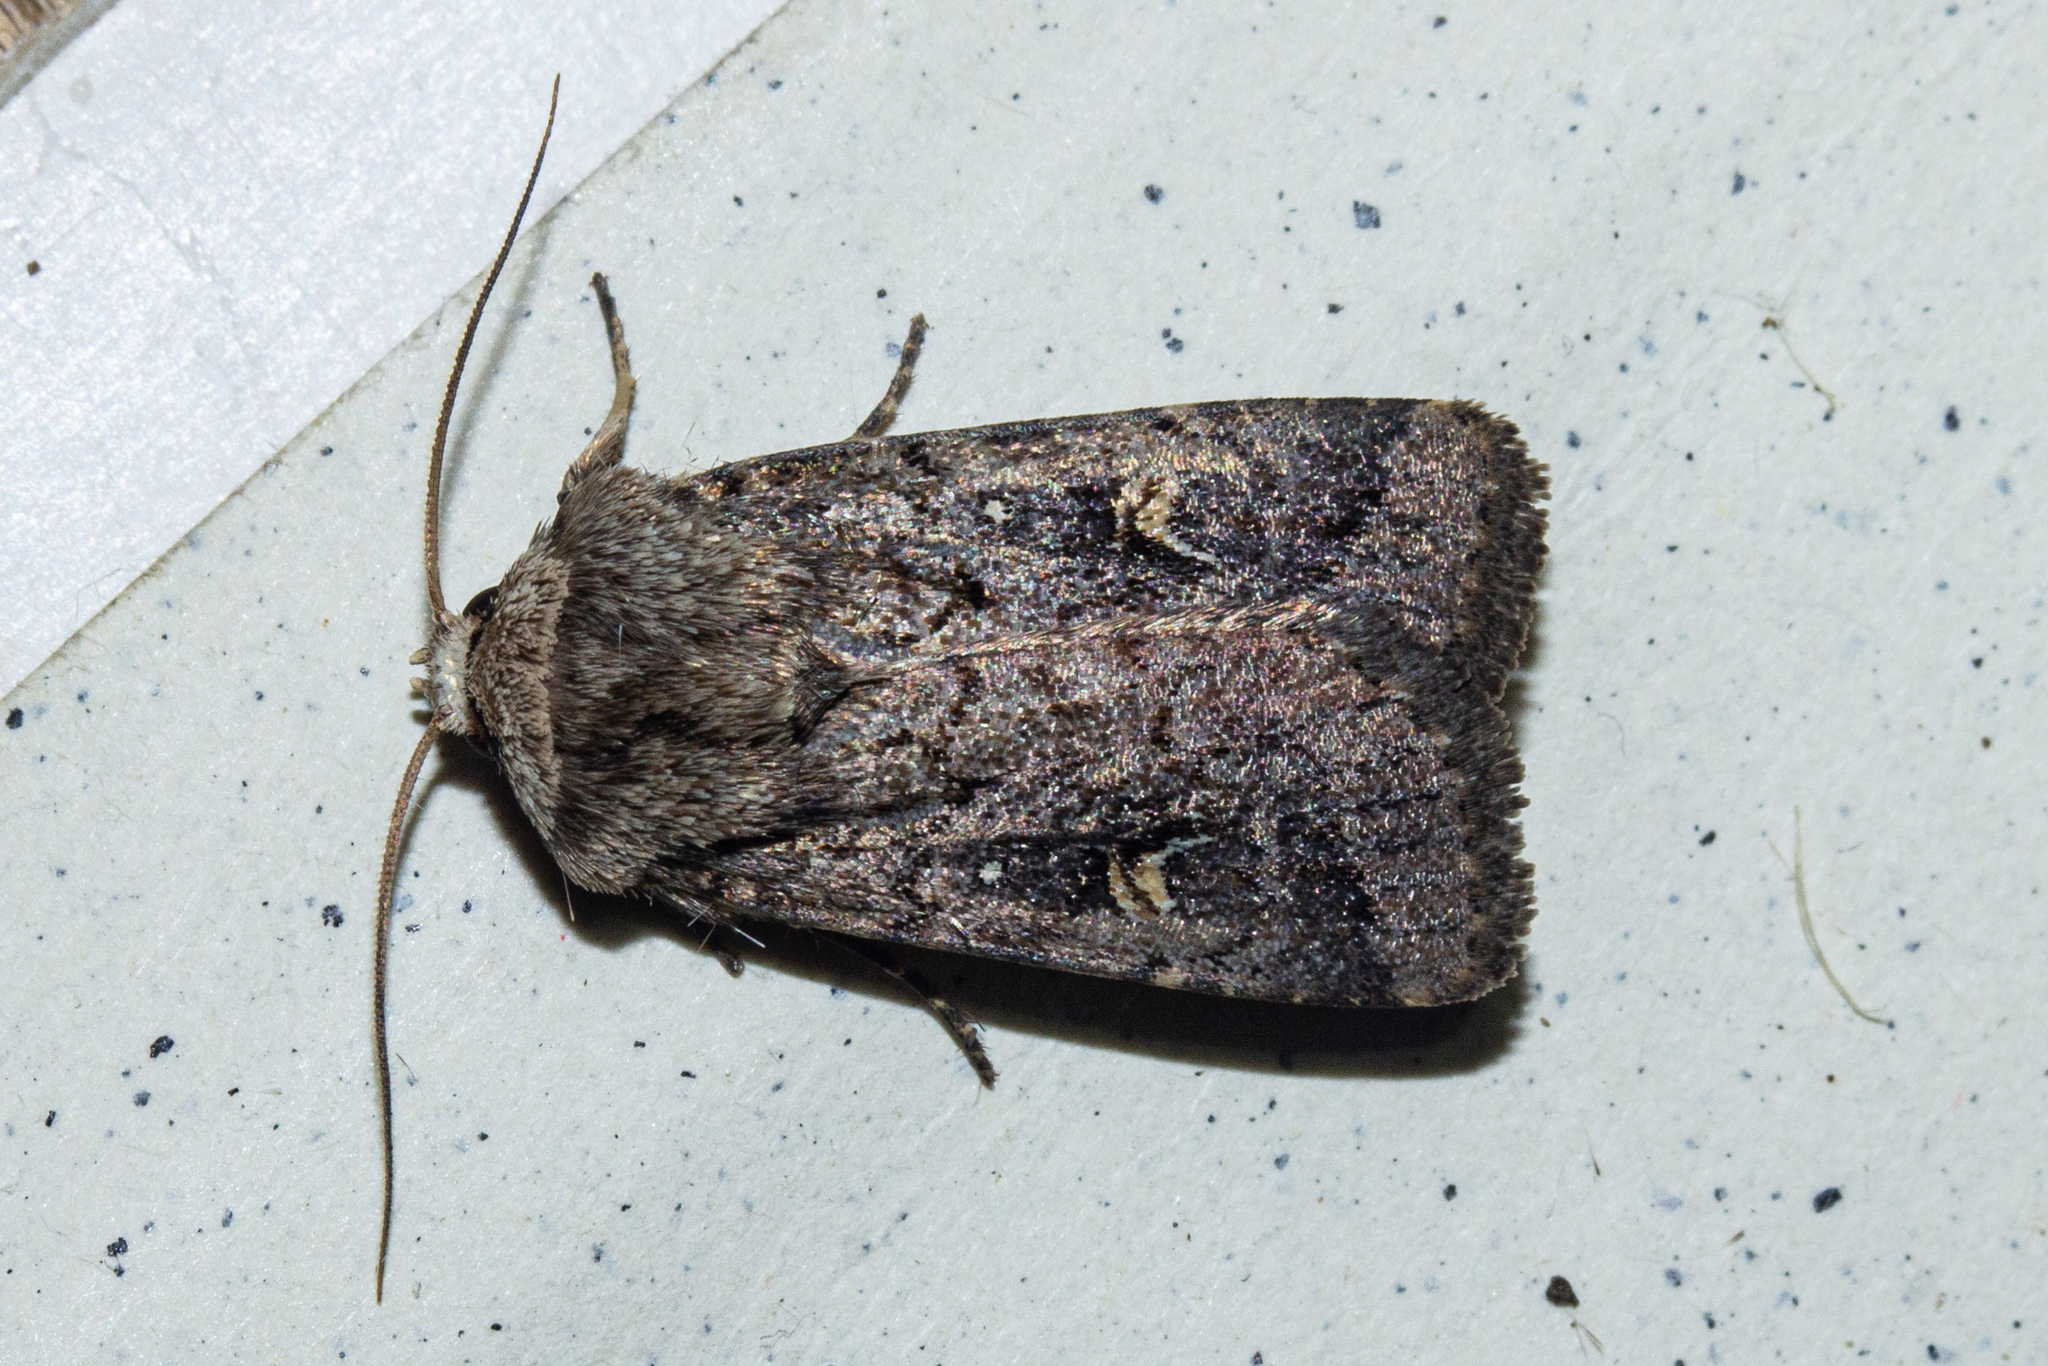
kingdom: Animalia
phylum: Arthropoda
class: Insecta
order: Lepidoptera
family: Noctuidae
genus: Proteuxoa
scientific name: Proteuxoa tetronycha
